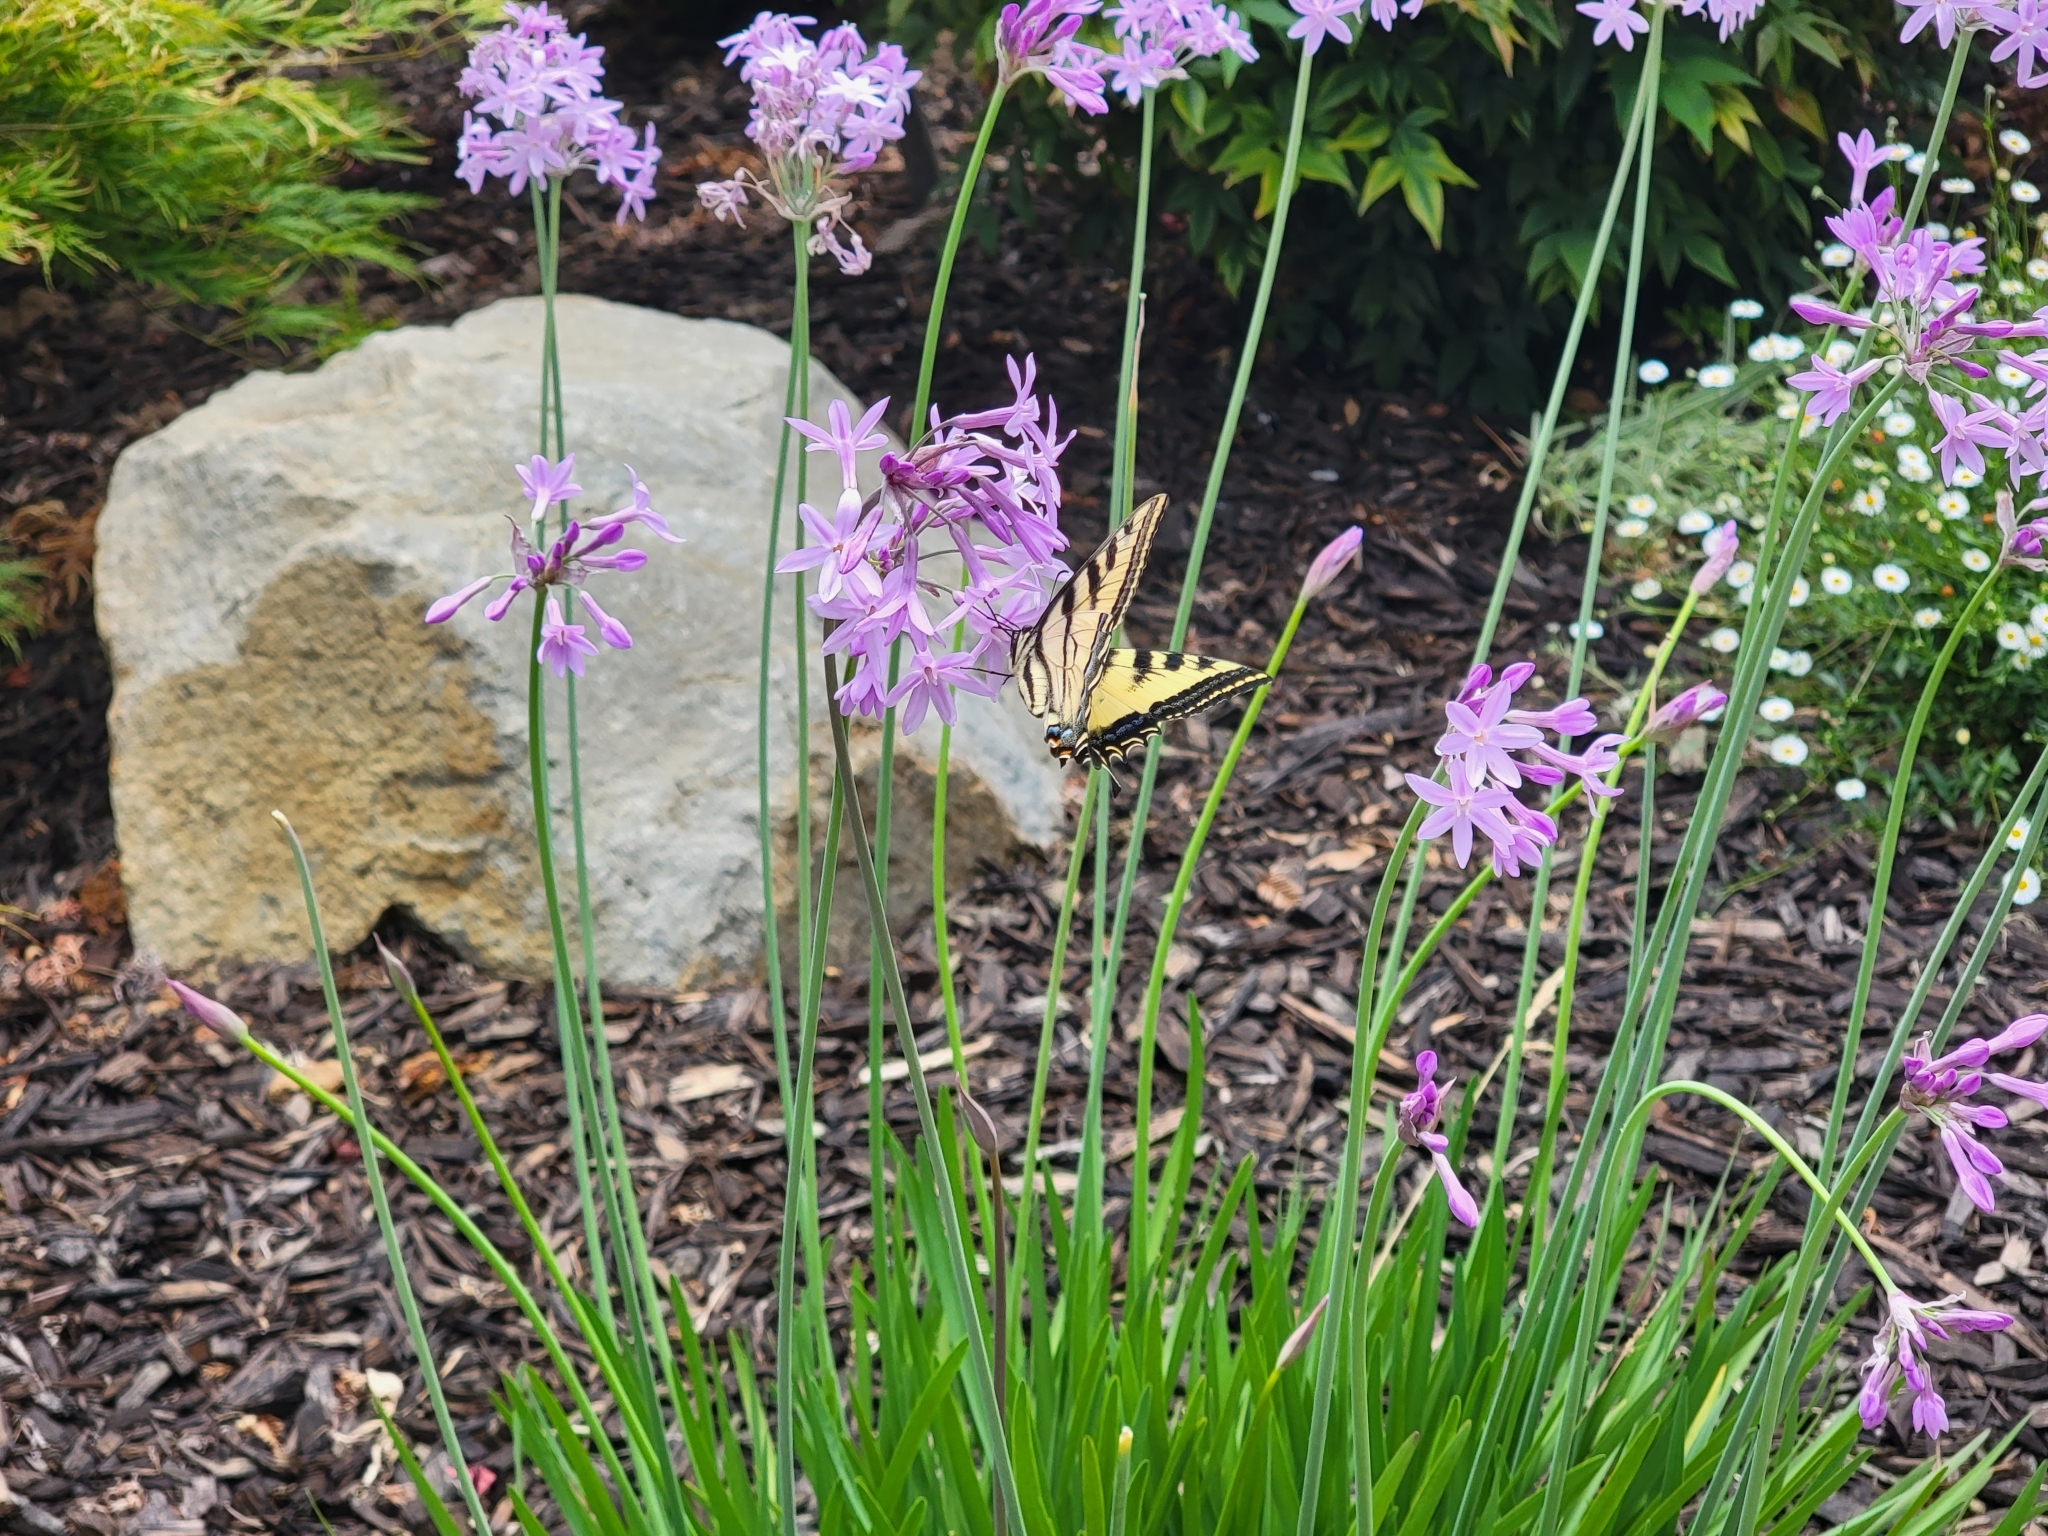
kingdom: Animalia
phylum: Arthropoda
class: Insecta
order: Lepidoptera
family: Papilionidae
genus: Papilio
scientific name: Papilio rutulus
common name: Western tiger swallowtail
